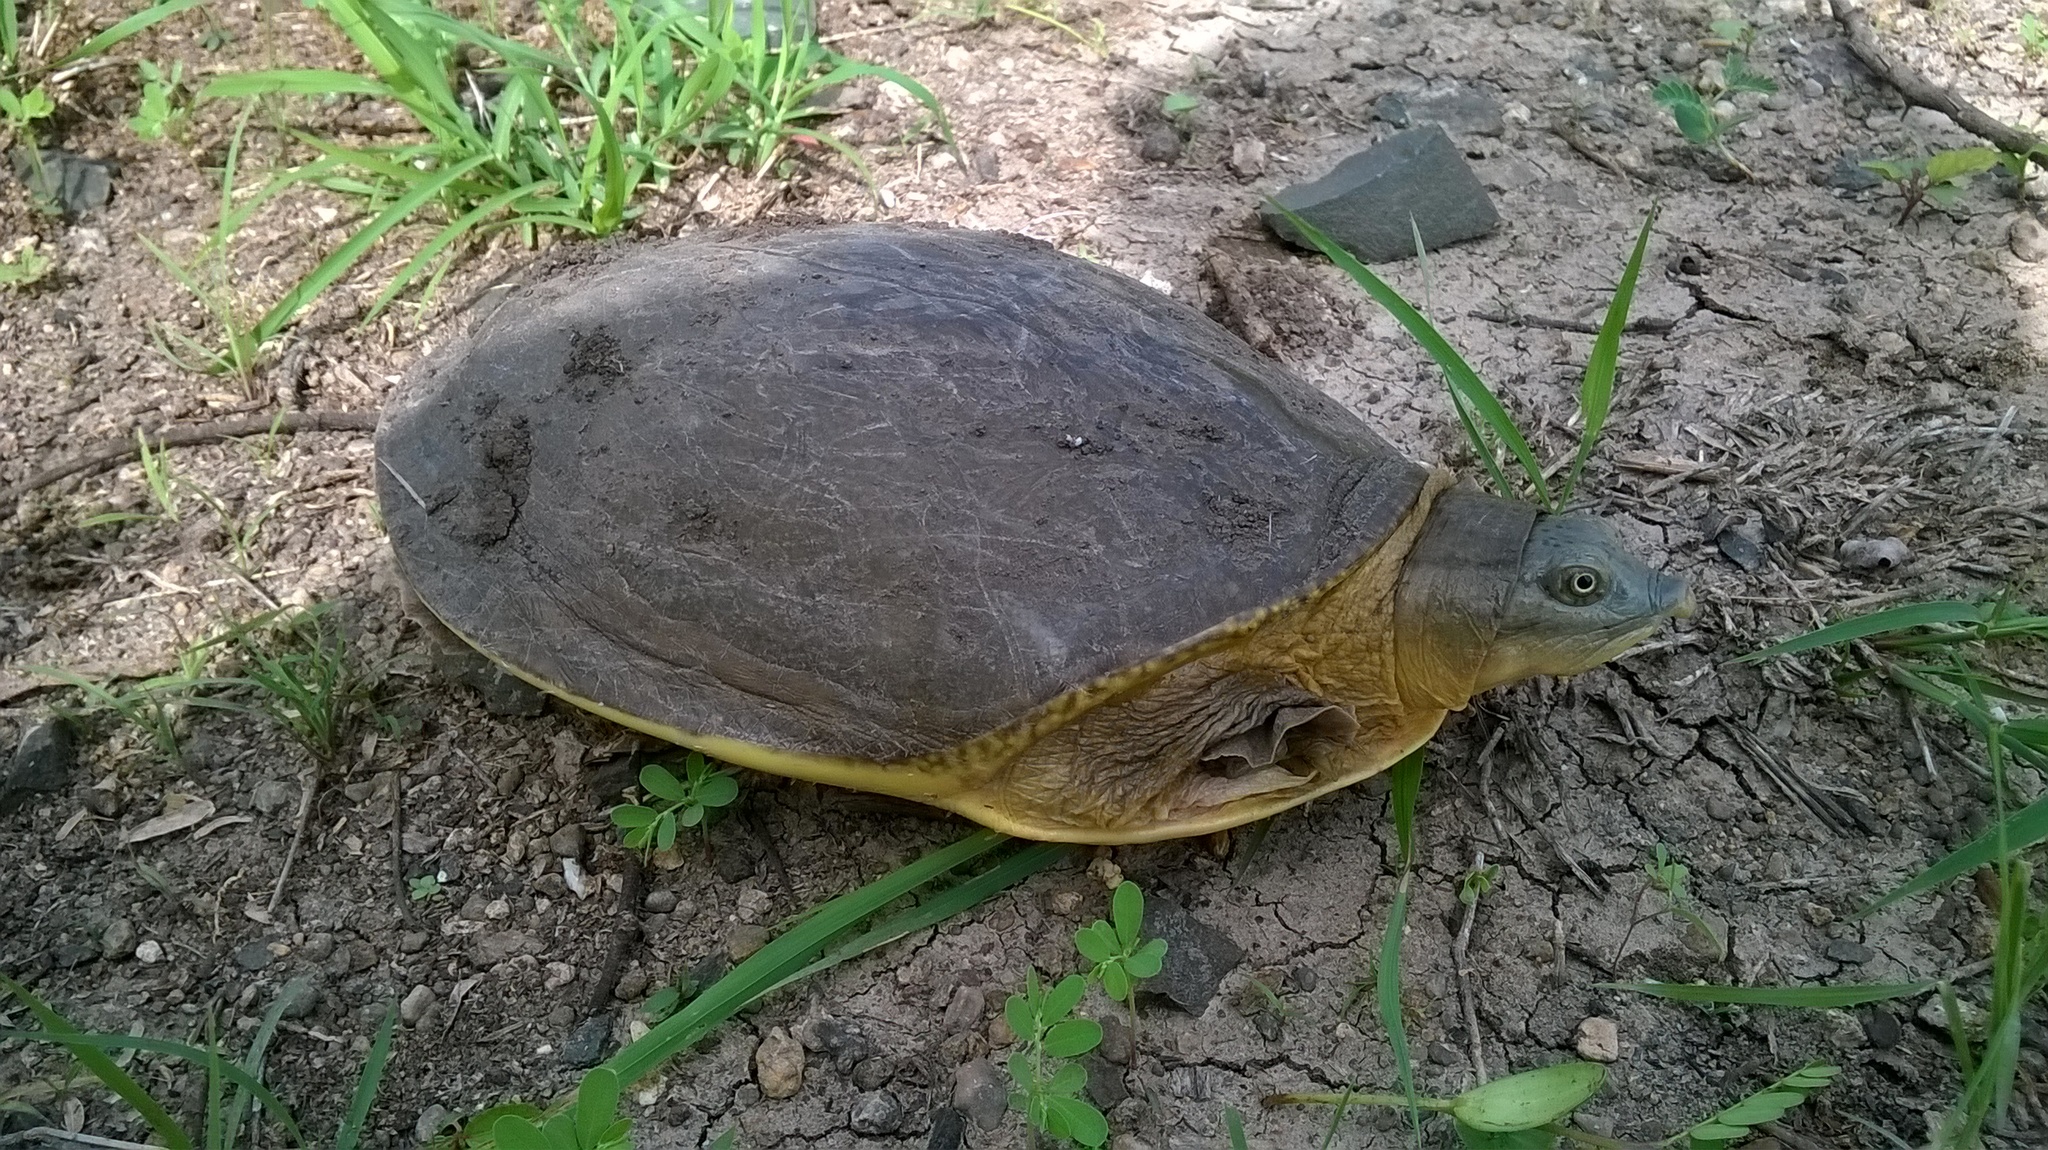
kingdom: Animalia
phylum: Chordata
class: Testudines
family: Trionychidae
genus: Lissemys
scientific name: Lissemys punctata
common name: Indian flap-shelled turtle
